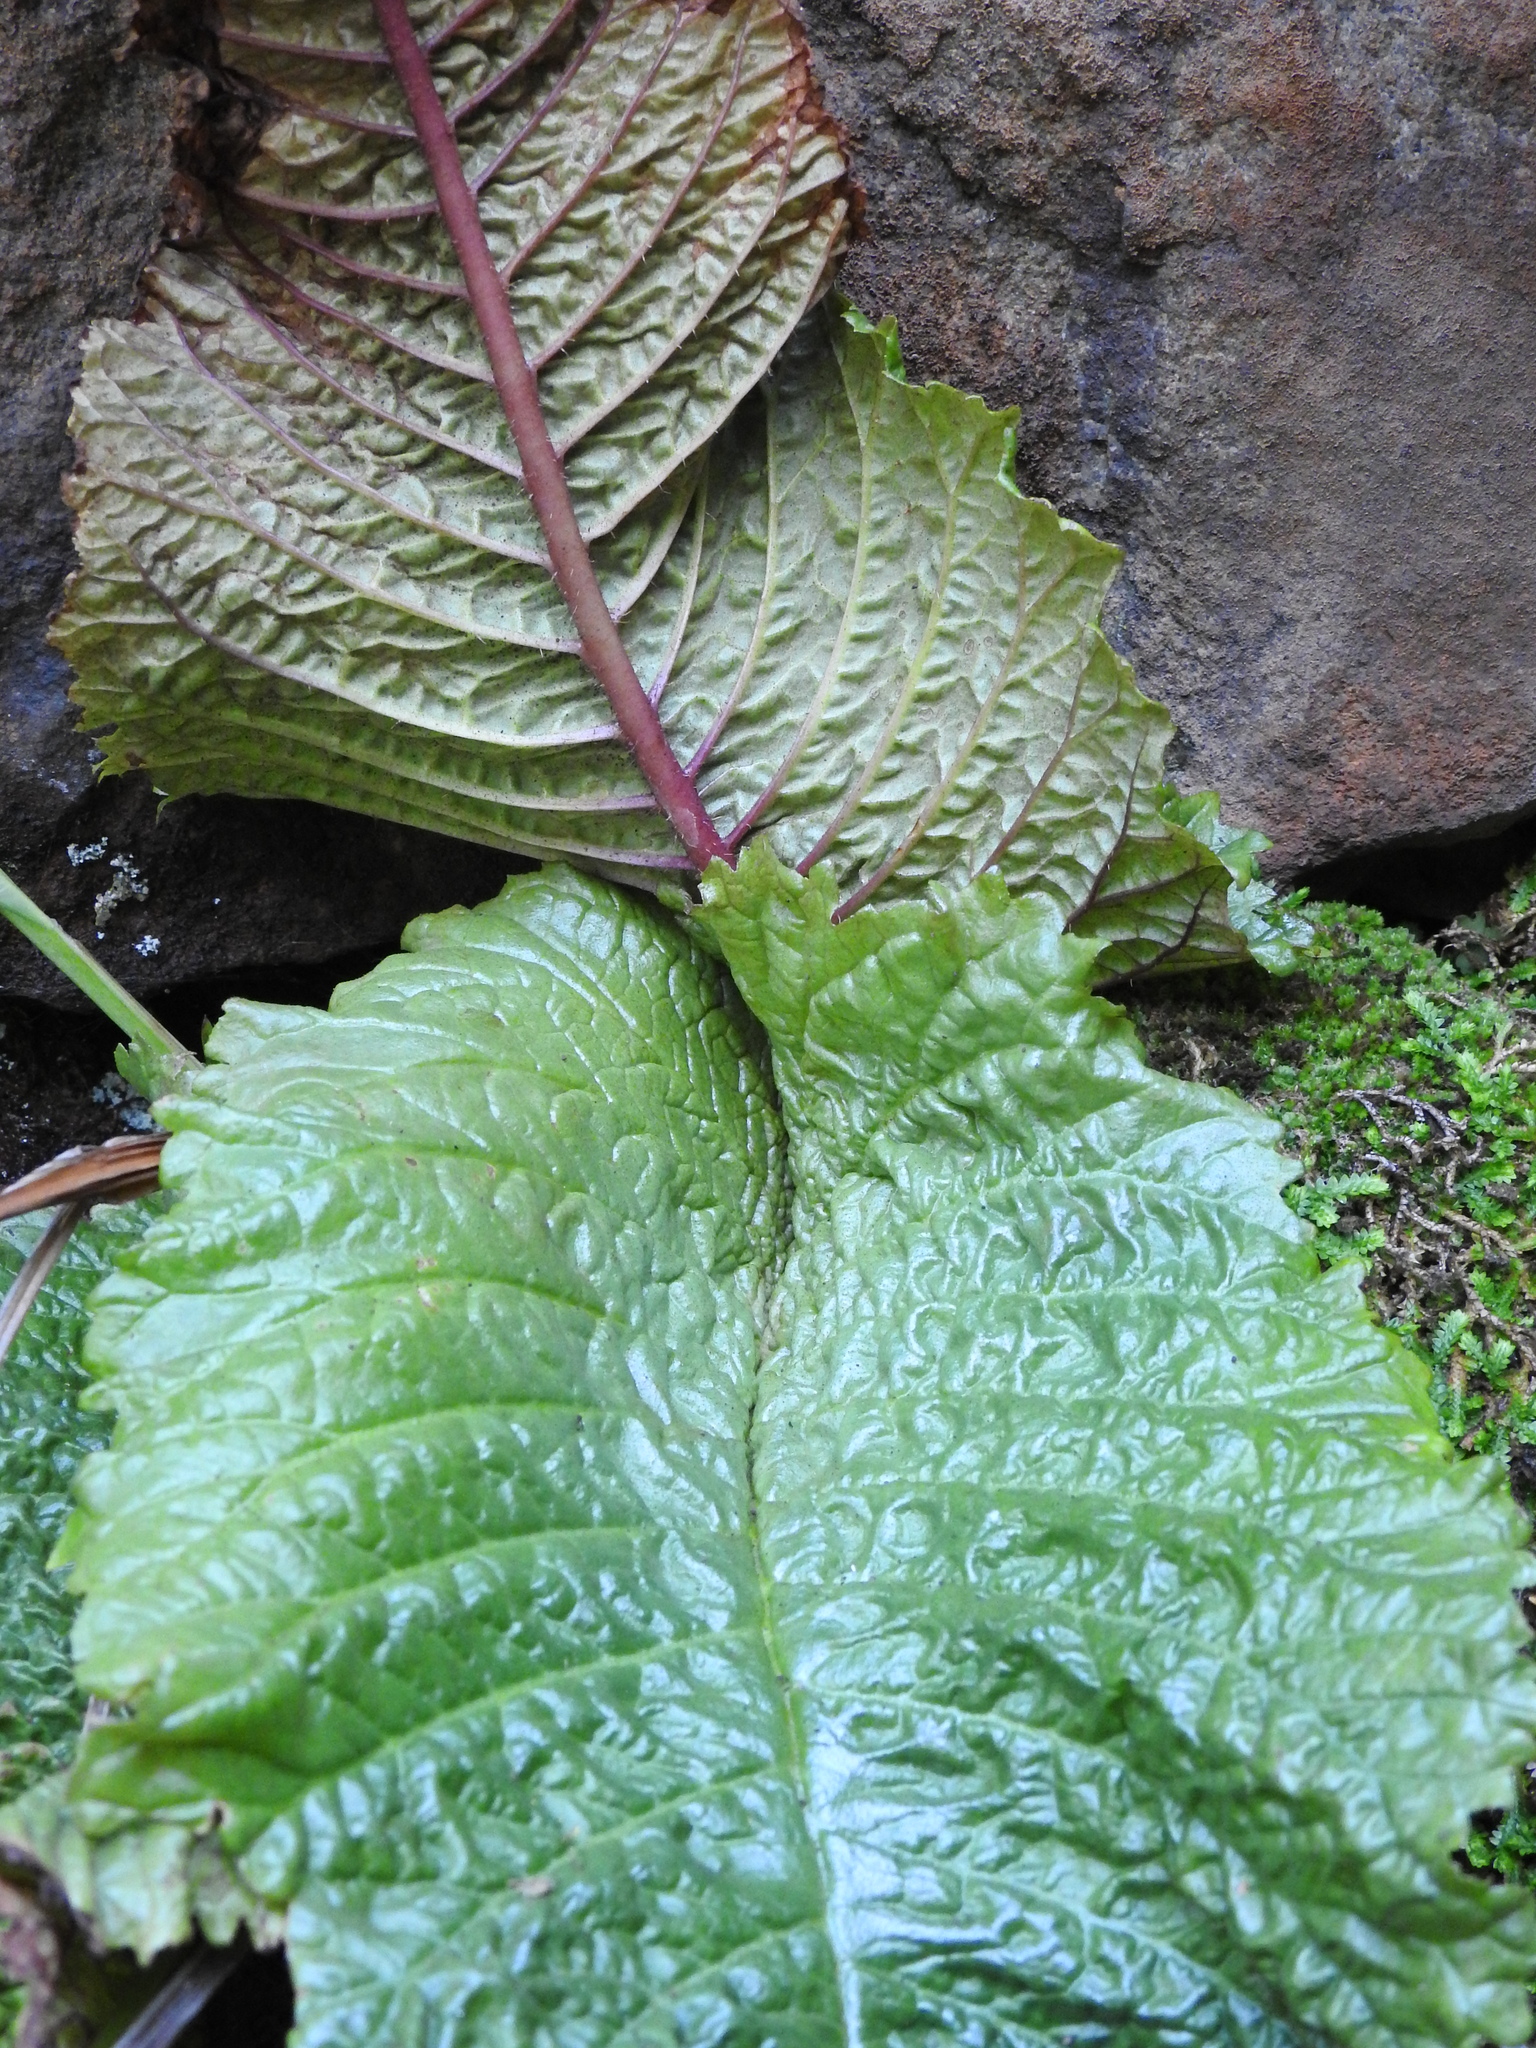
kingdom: Plantae
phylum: Tracheophyta
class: Magnoliopsida
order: Lamiales
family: Gesneriaceae
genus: Streptocarpus
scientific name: Streptocarpus denticulatus
